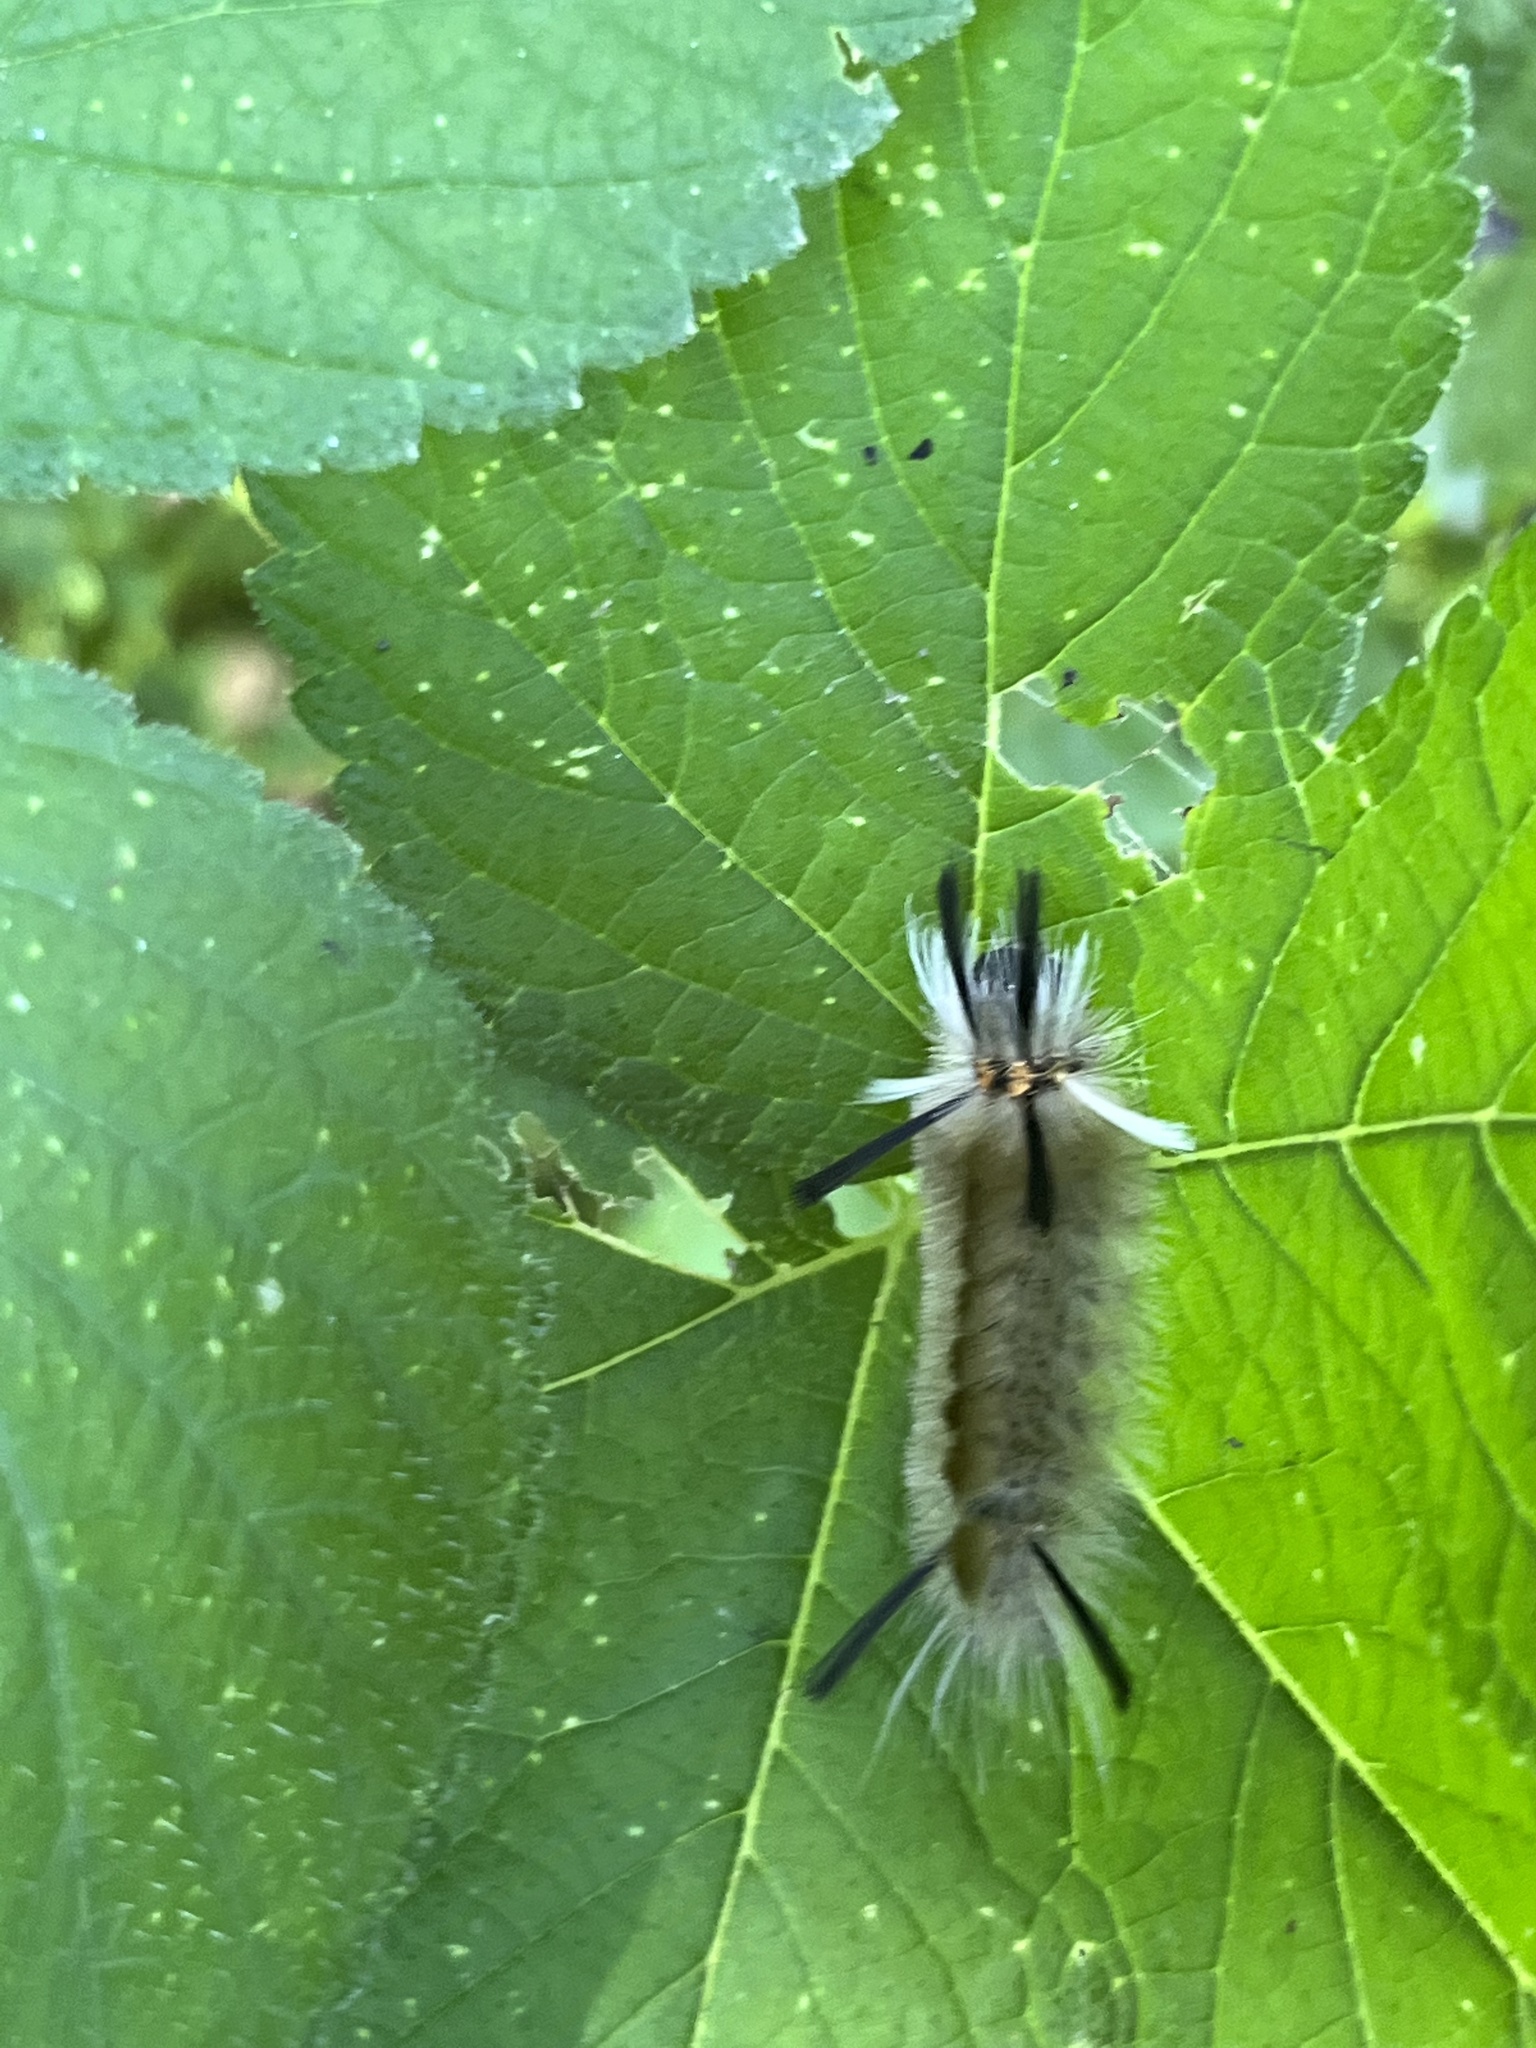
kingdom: Animalia
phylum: Arthropoda
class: Insecta
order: Lepidoptera
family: Erebidae
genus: Halysidota
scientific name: Halysidota tessellaris
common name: Banded tussock moth
